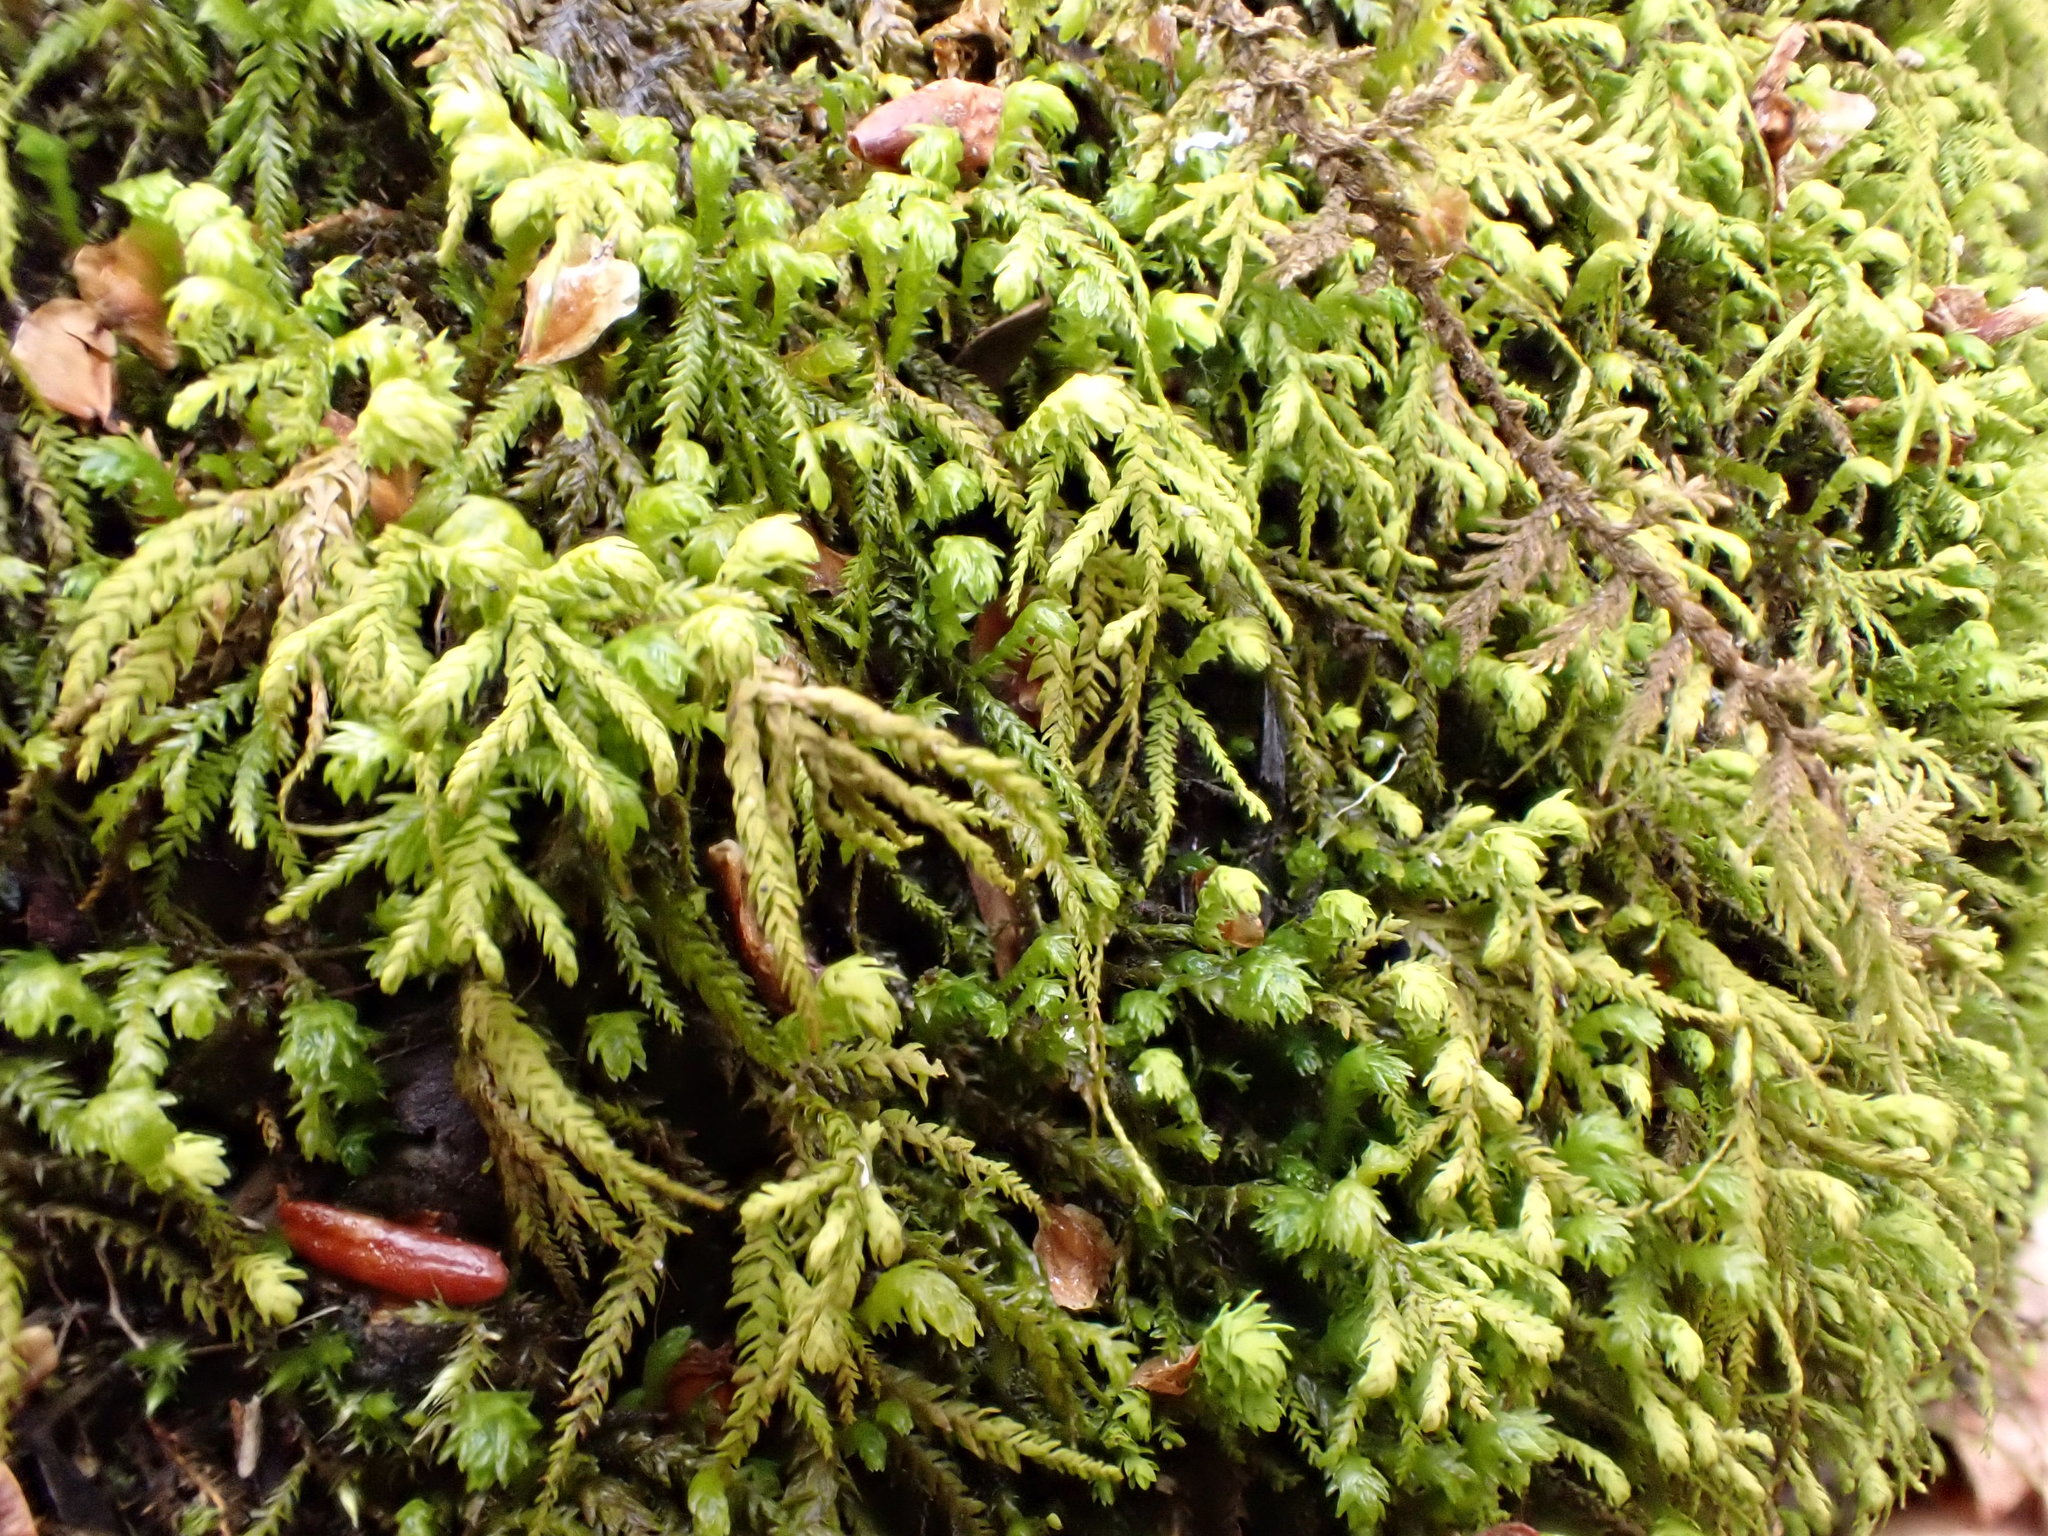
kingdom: Plantae
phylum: Bryophyta
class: Bryopsida
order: Hypnales
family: Neckeraceae
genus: Pseudanomodon
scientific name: Pseudanomodon attenuatus
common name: Tree-skirt moss
